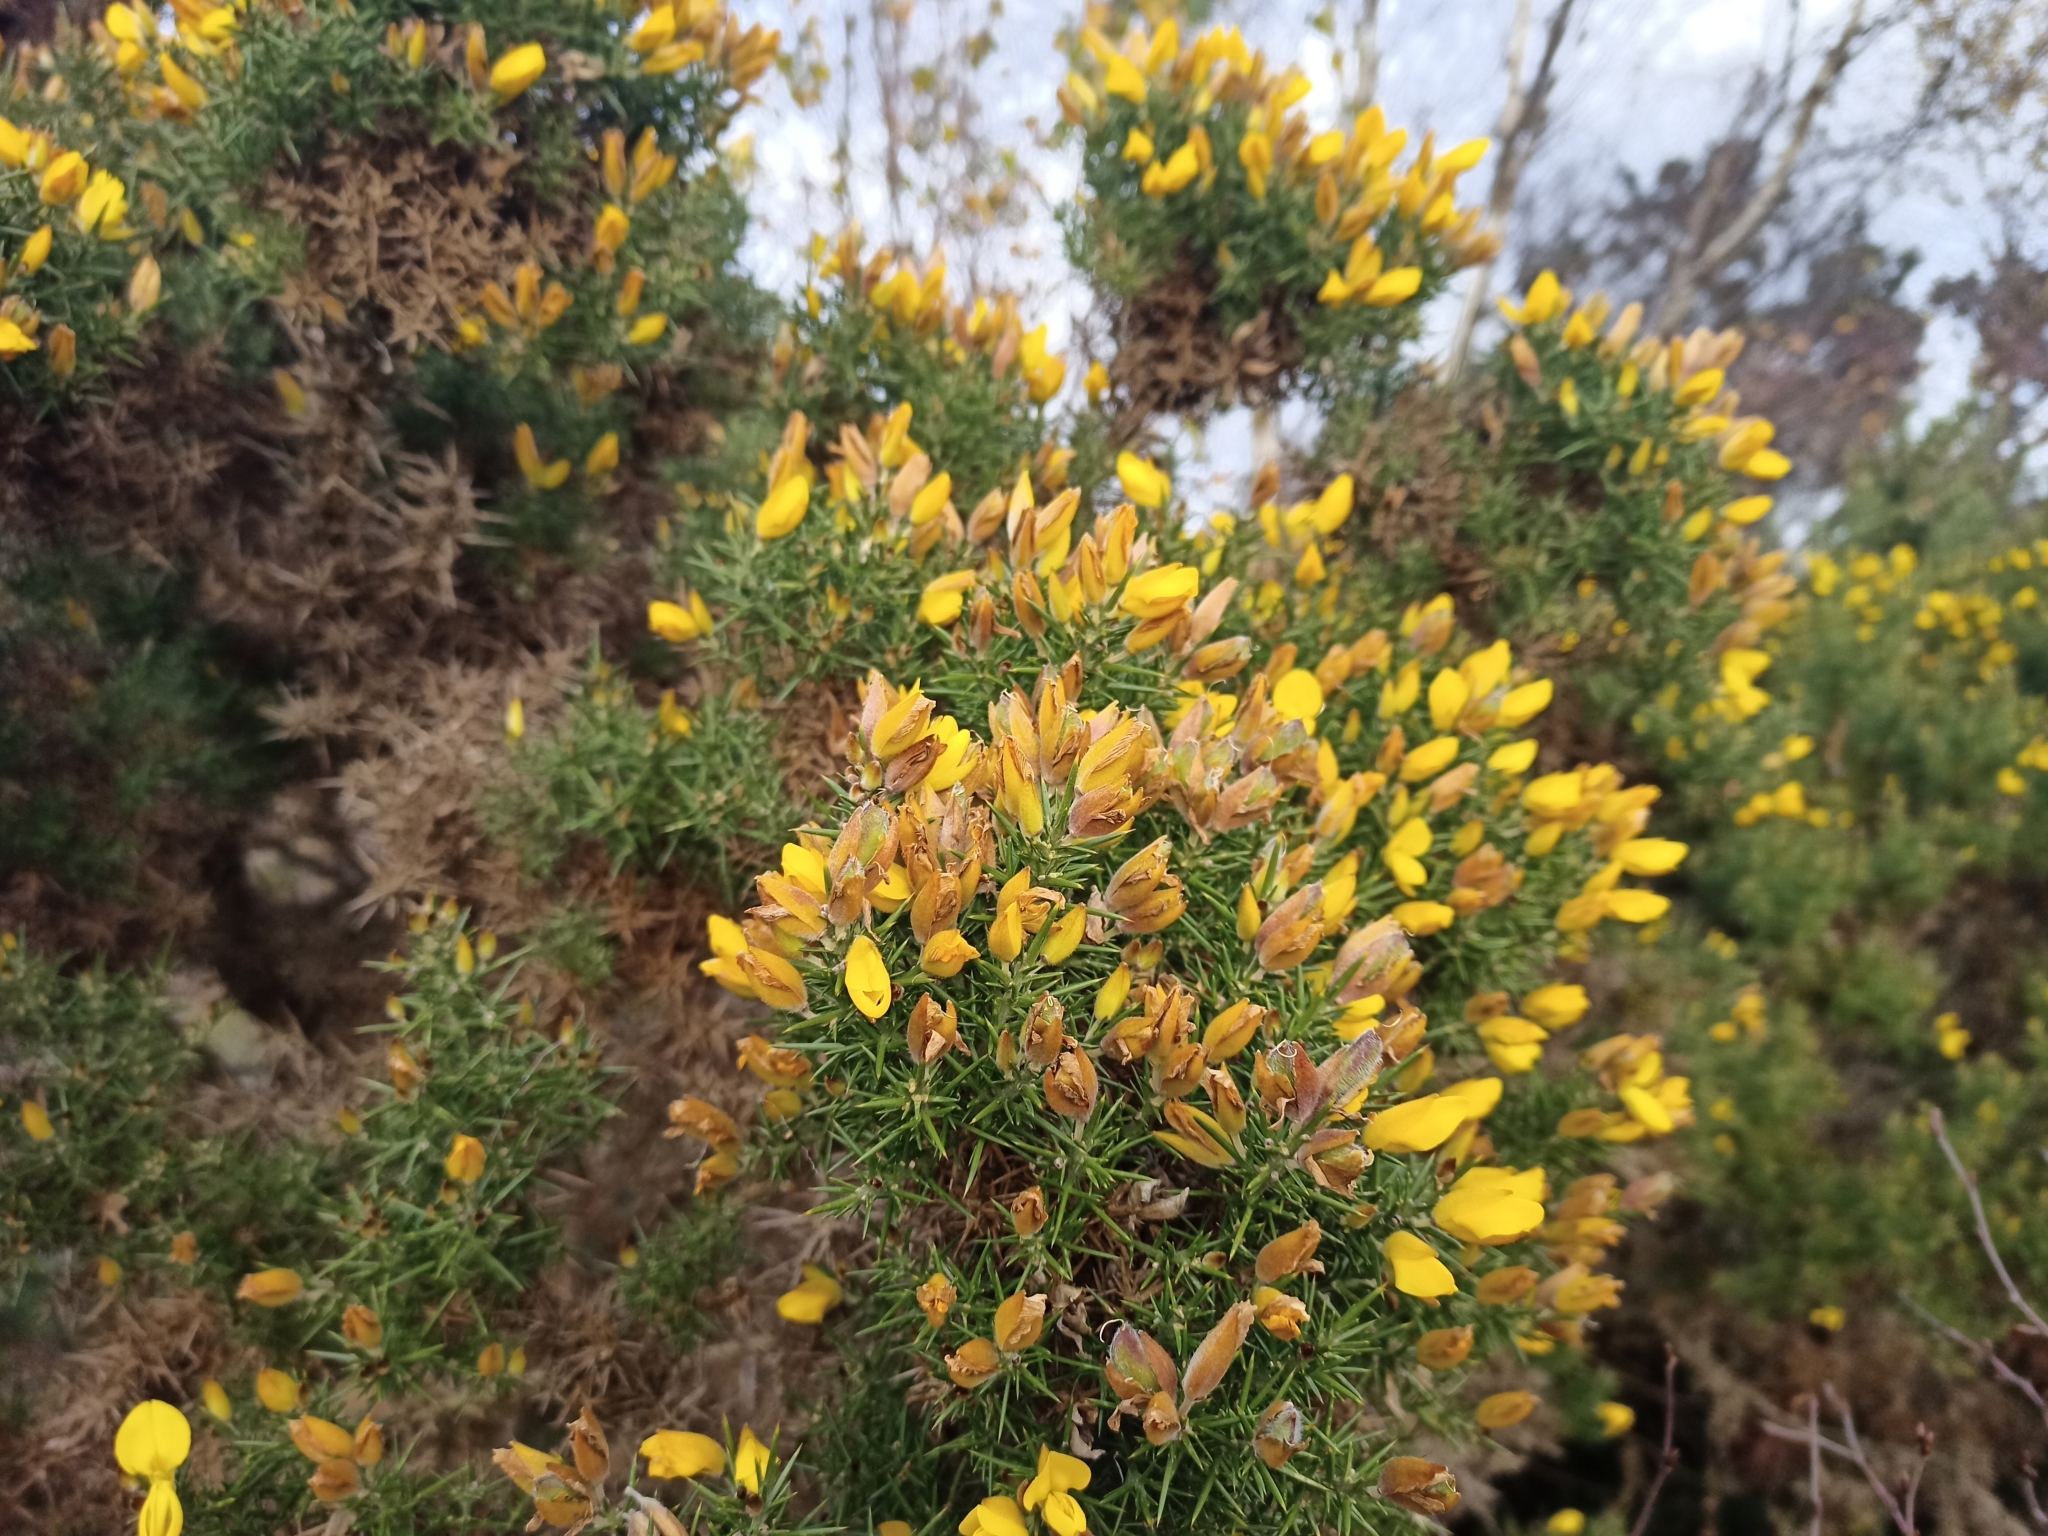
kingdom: Plantae
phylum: Tracheophyta
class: Magnoliopsida
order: Fabales
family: Fabaceae
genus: Ulex
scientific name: Ulex europaeus
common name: Common gorse
